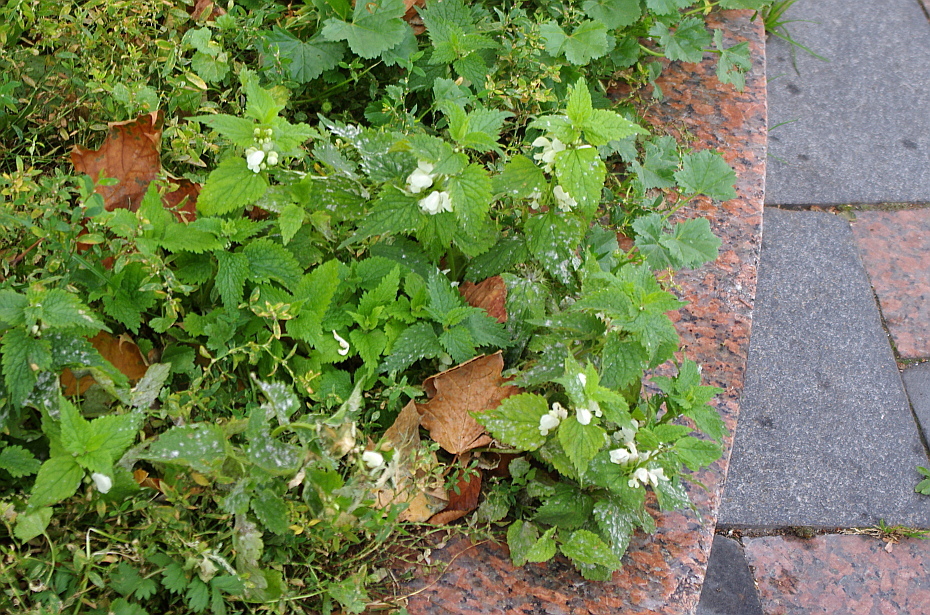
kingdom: Plantae
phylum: Tracheophyta
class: Magnoliopsida
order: Lamiales
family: Lamiaceae
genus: Lamium
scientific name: Lamium album
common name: White dead-nettle
